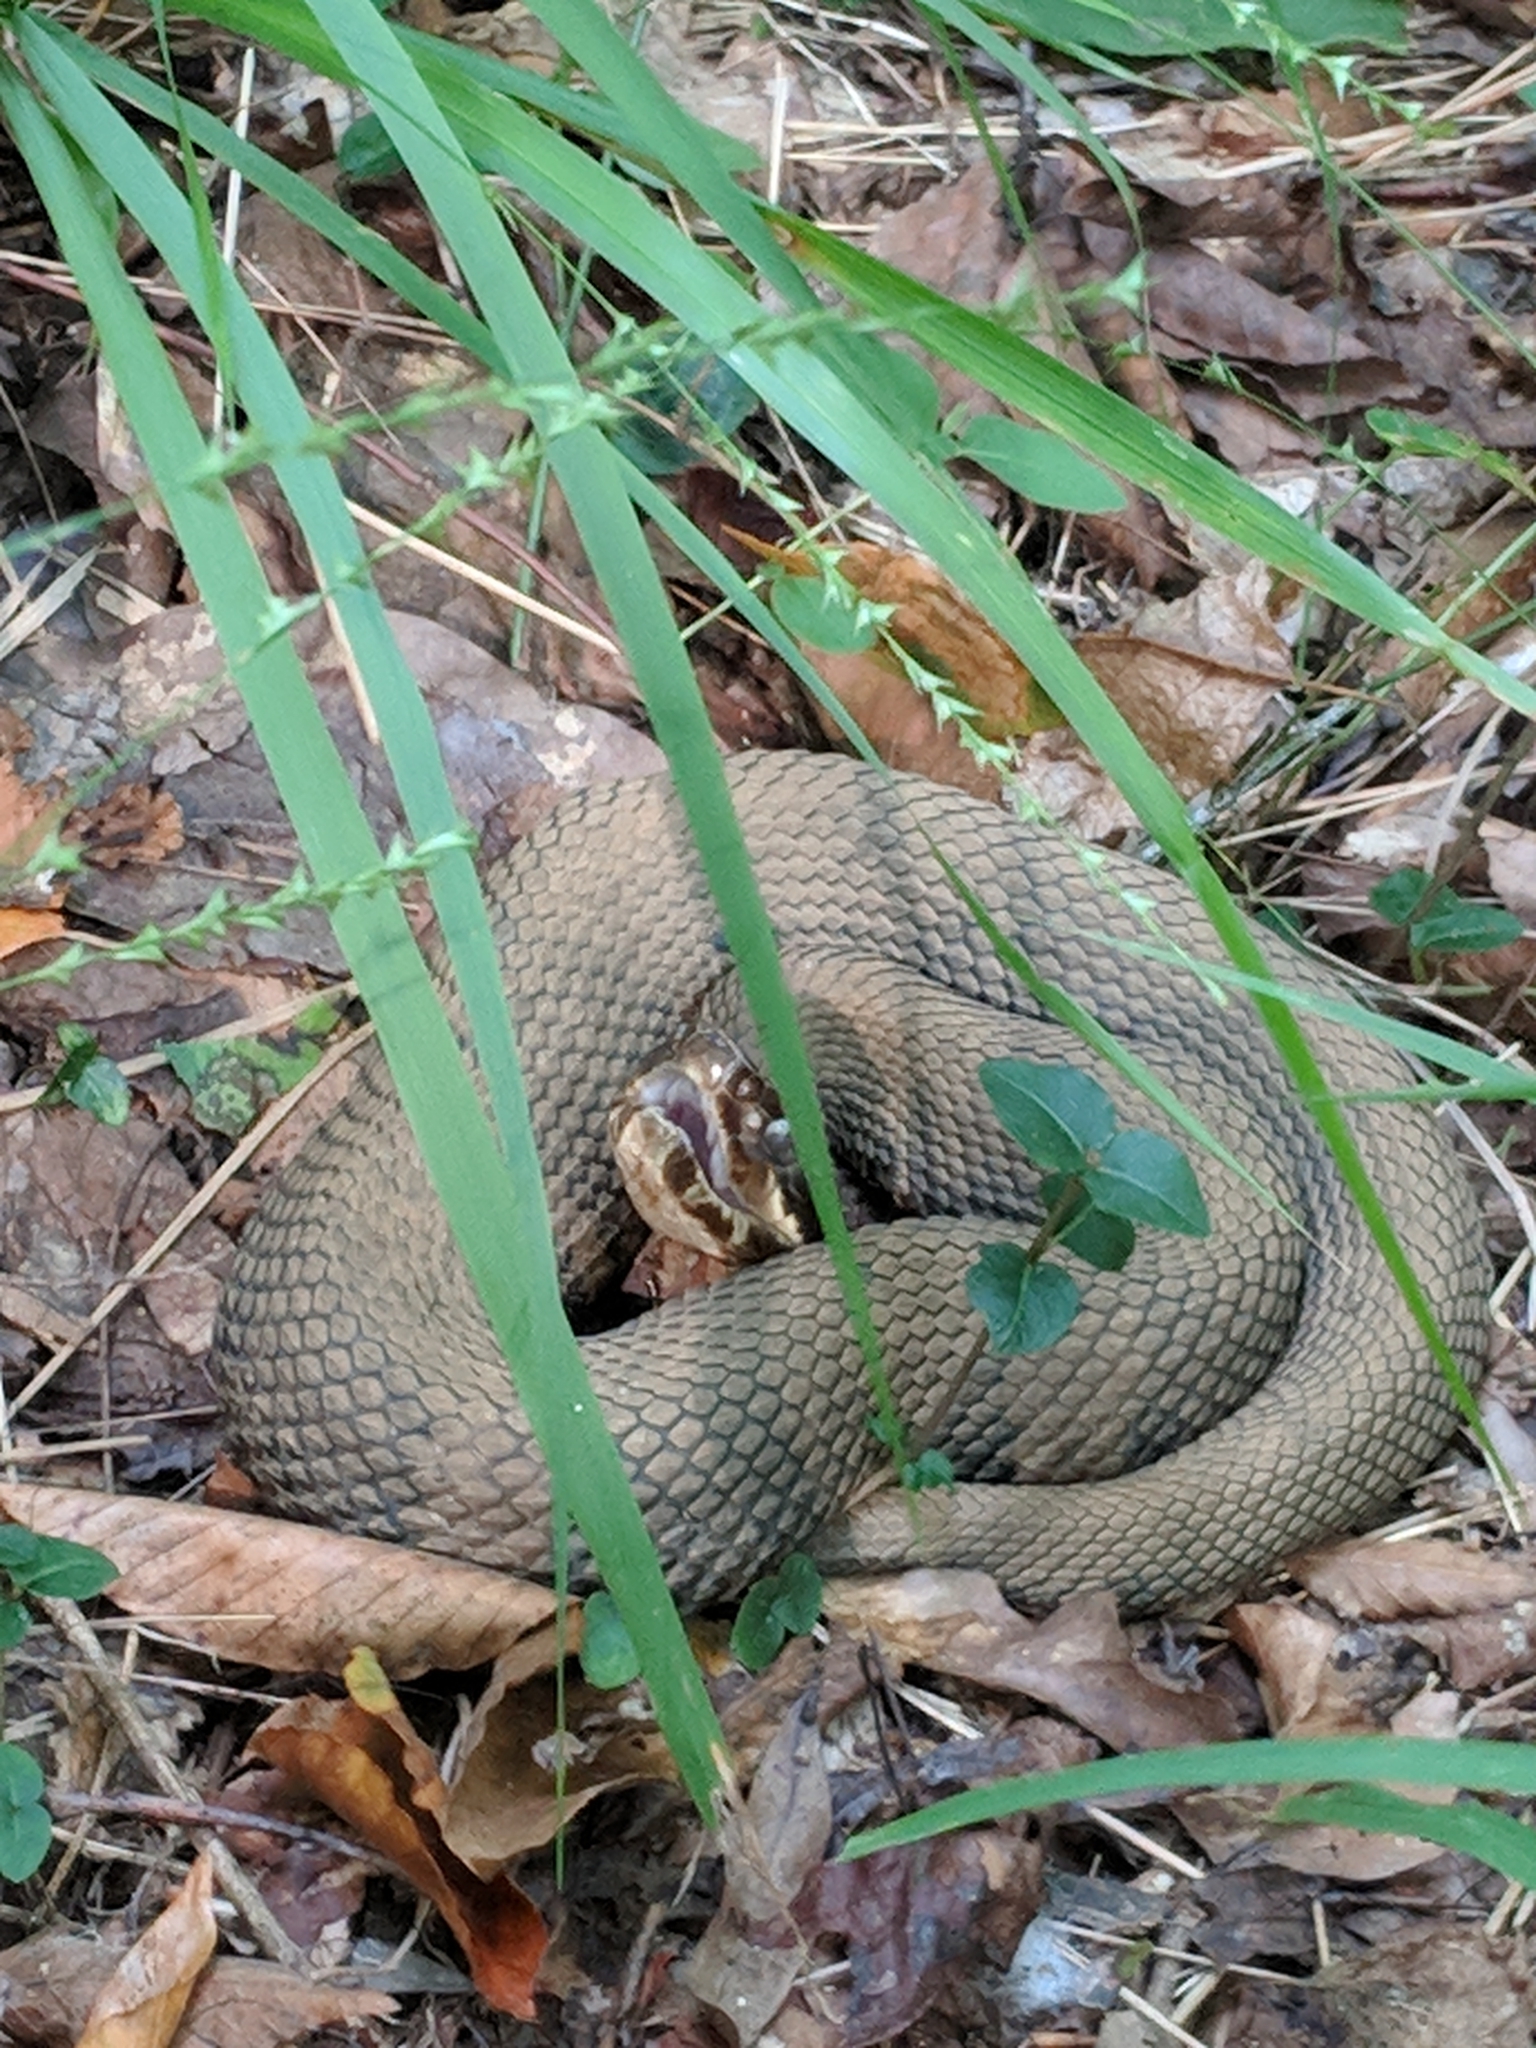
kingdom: Animalia
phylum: Chordata
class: Squamata
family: Viperidae
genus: Agkistrodon
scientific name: Agkistrodon piscivorus
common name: Cottonmouth
